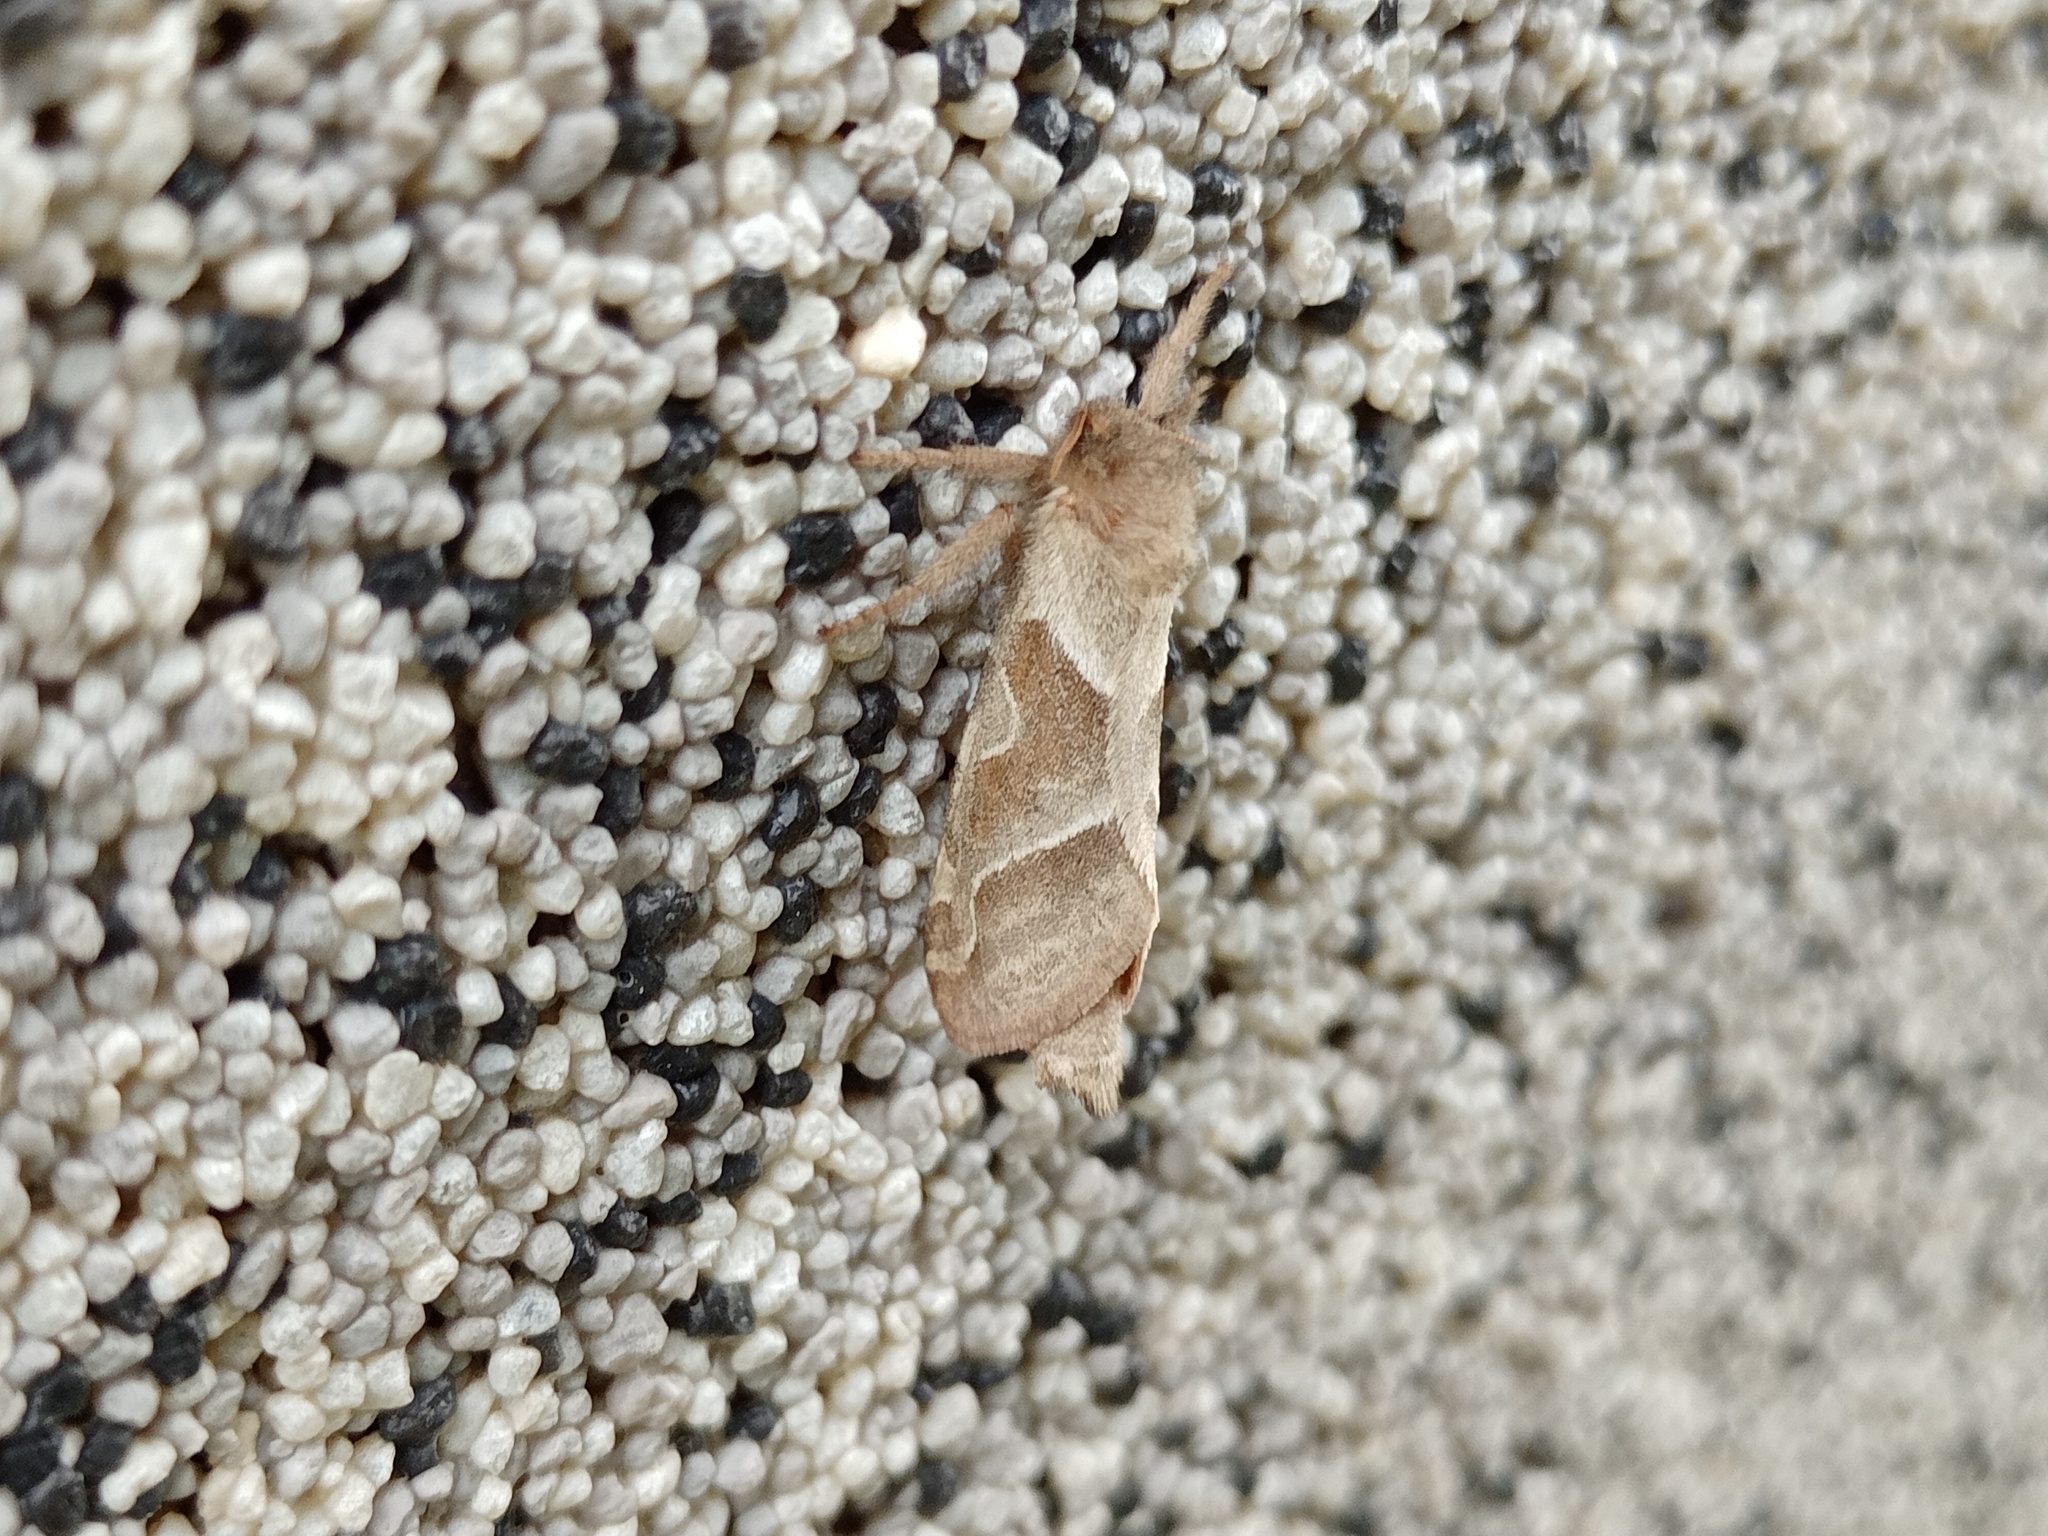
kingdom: Animalia
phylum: Arthropoda
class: Insecta
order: Lepidoptera
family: Hepialidae
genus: Triodia
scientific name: Triodia sylvina
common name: Orange swift
